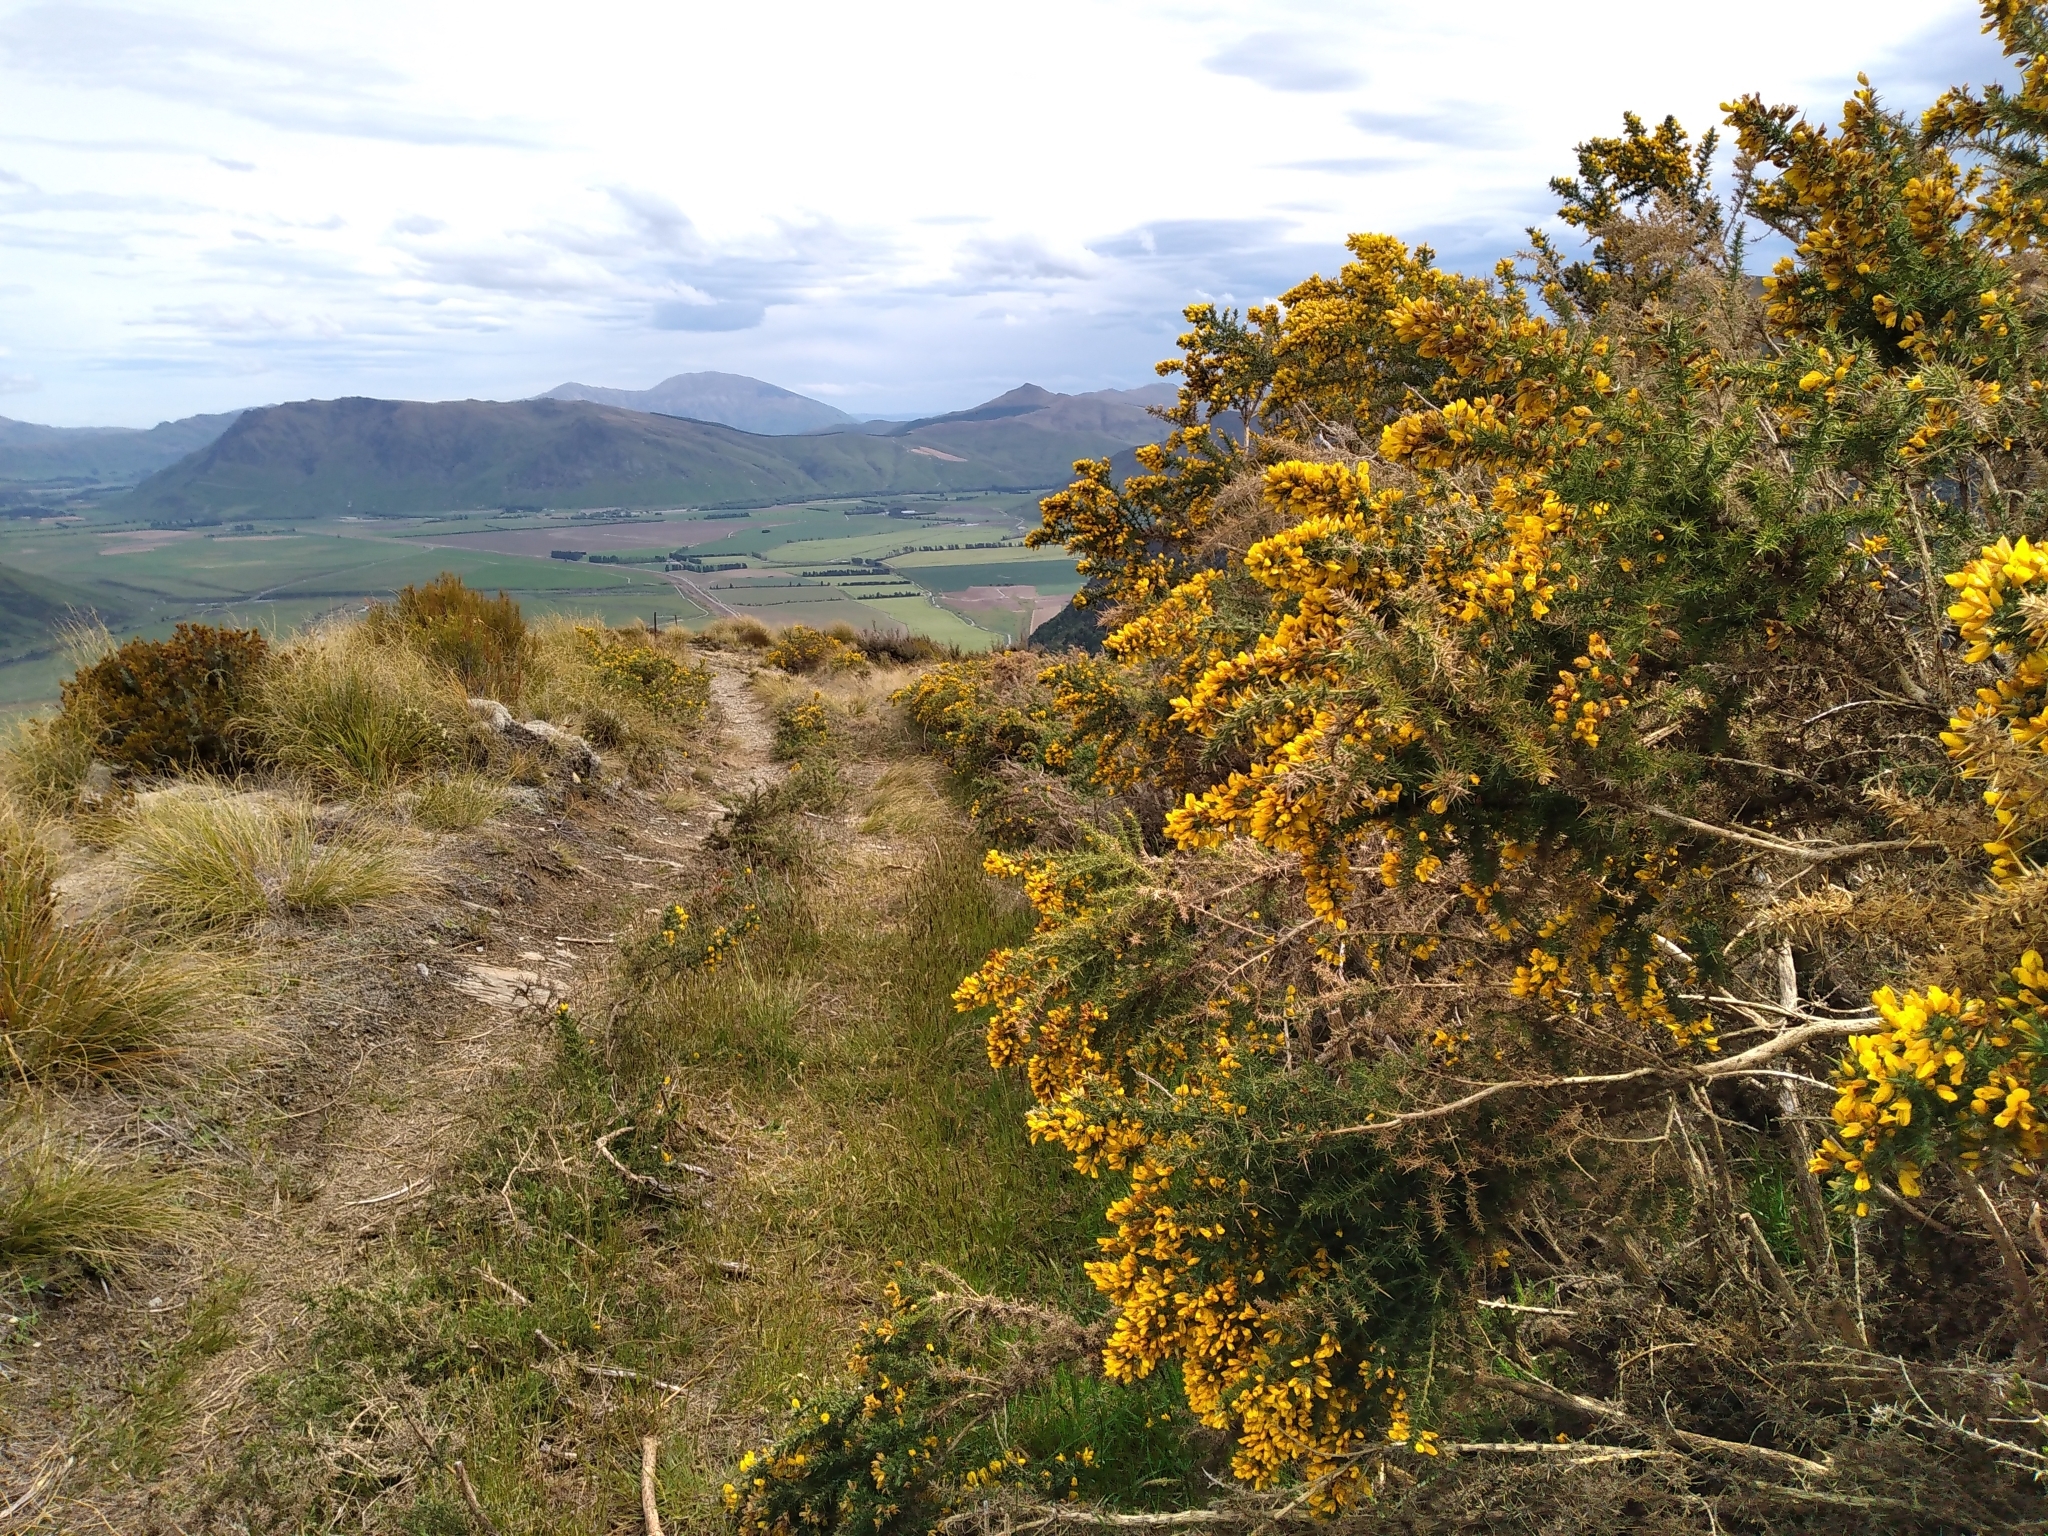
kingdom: Plantae
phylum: Tracheophyta
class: Magnoliopsida
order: Fabales
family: Fabaceae
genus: Ulex
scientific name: Ulex europaeus
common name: Common gorse
